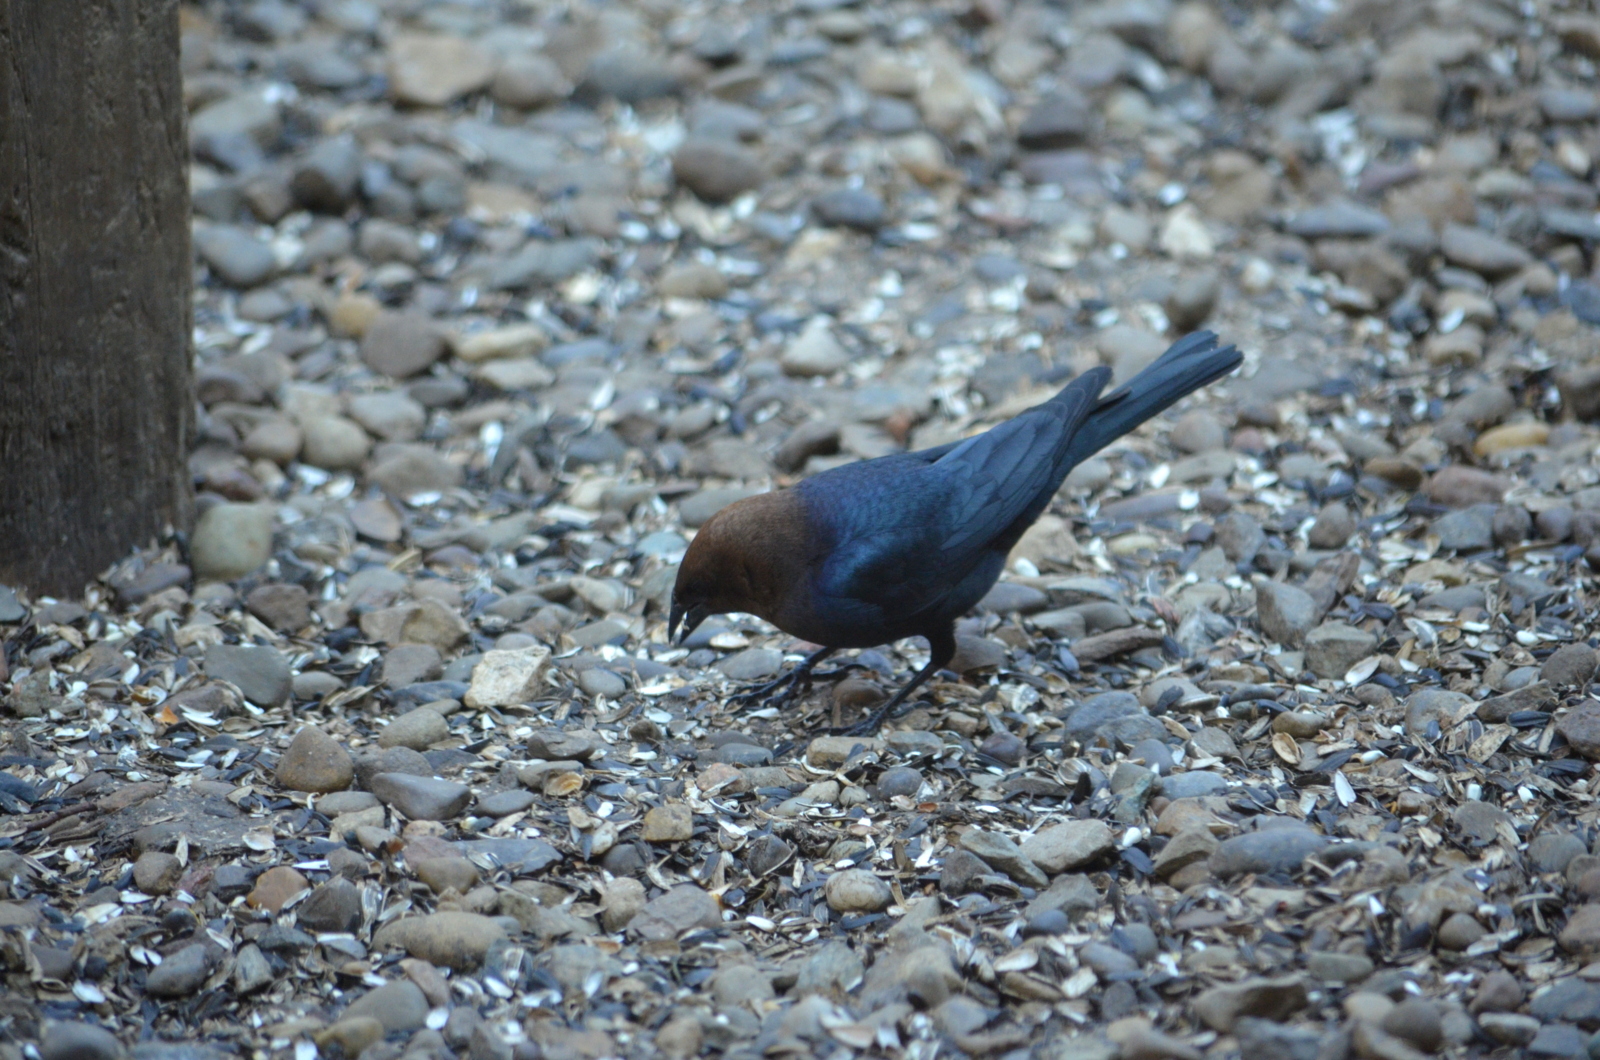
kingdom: Animalia
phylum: Chordata
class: Aves
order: Passeriformes
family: Icteridae
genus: Molothrus
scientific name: Molothrus ater
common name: Brown-headed cowbird
